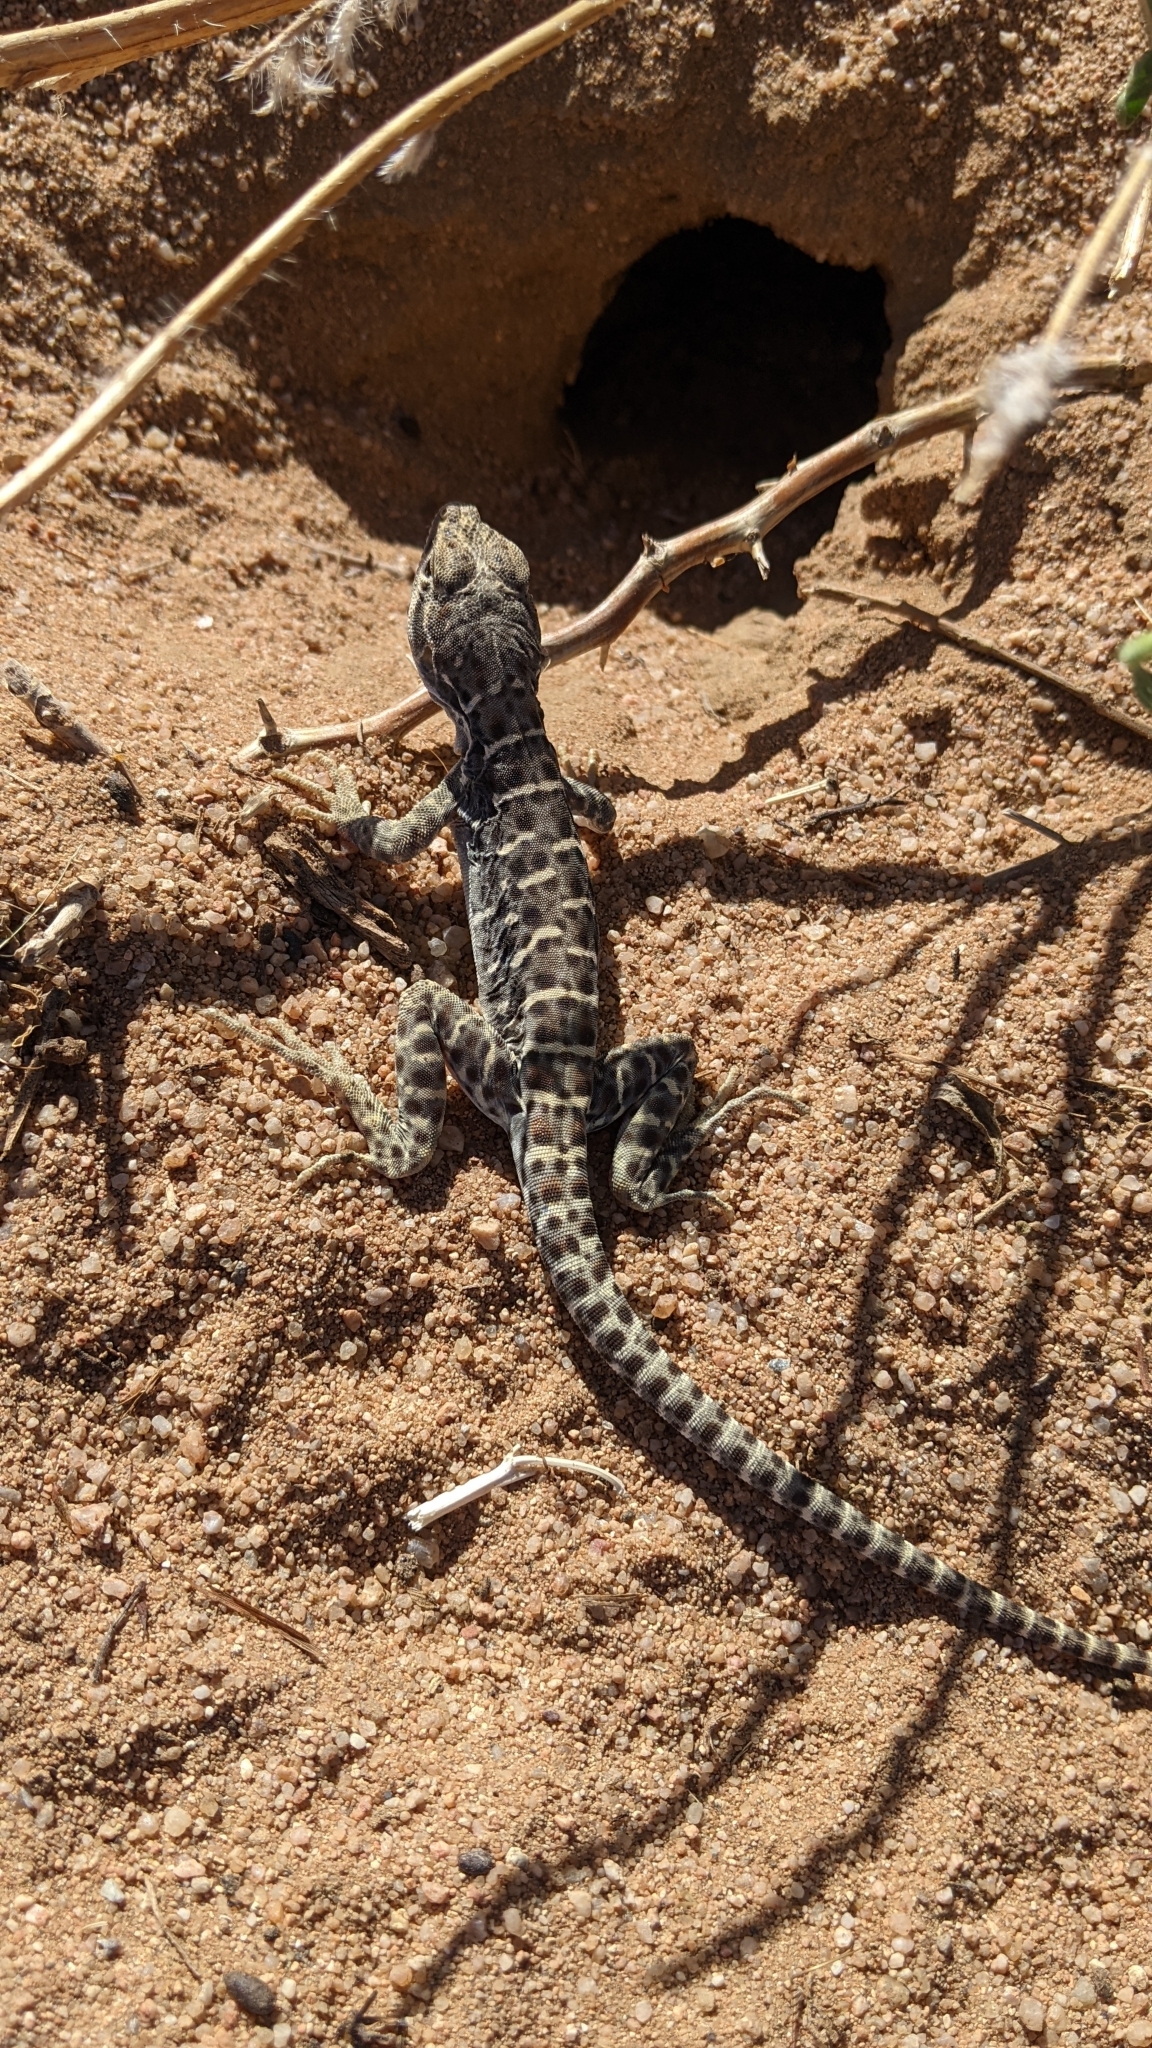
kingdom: Animalia
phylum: Chordata
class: Squamata
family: Crotaphytidae
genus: Gambelia
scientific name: Gambelia wislizenii
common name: Longnose leopard lizard
